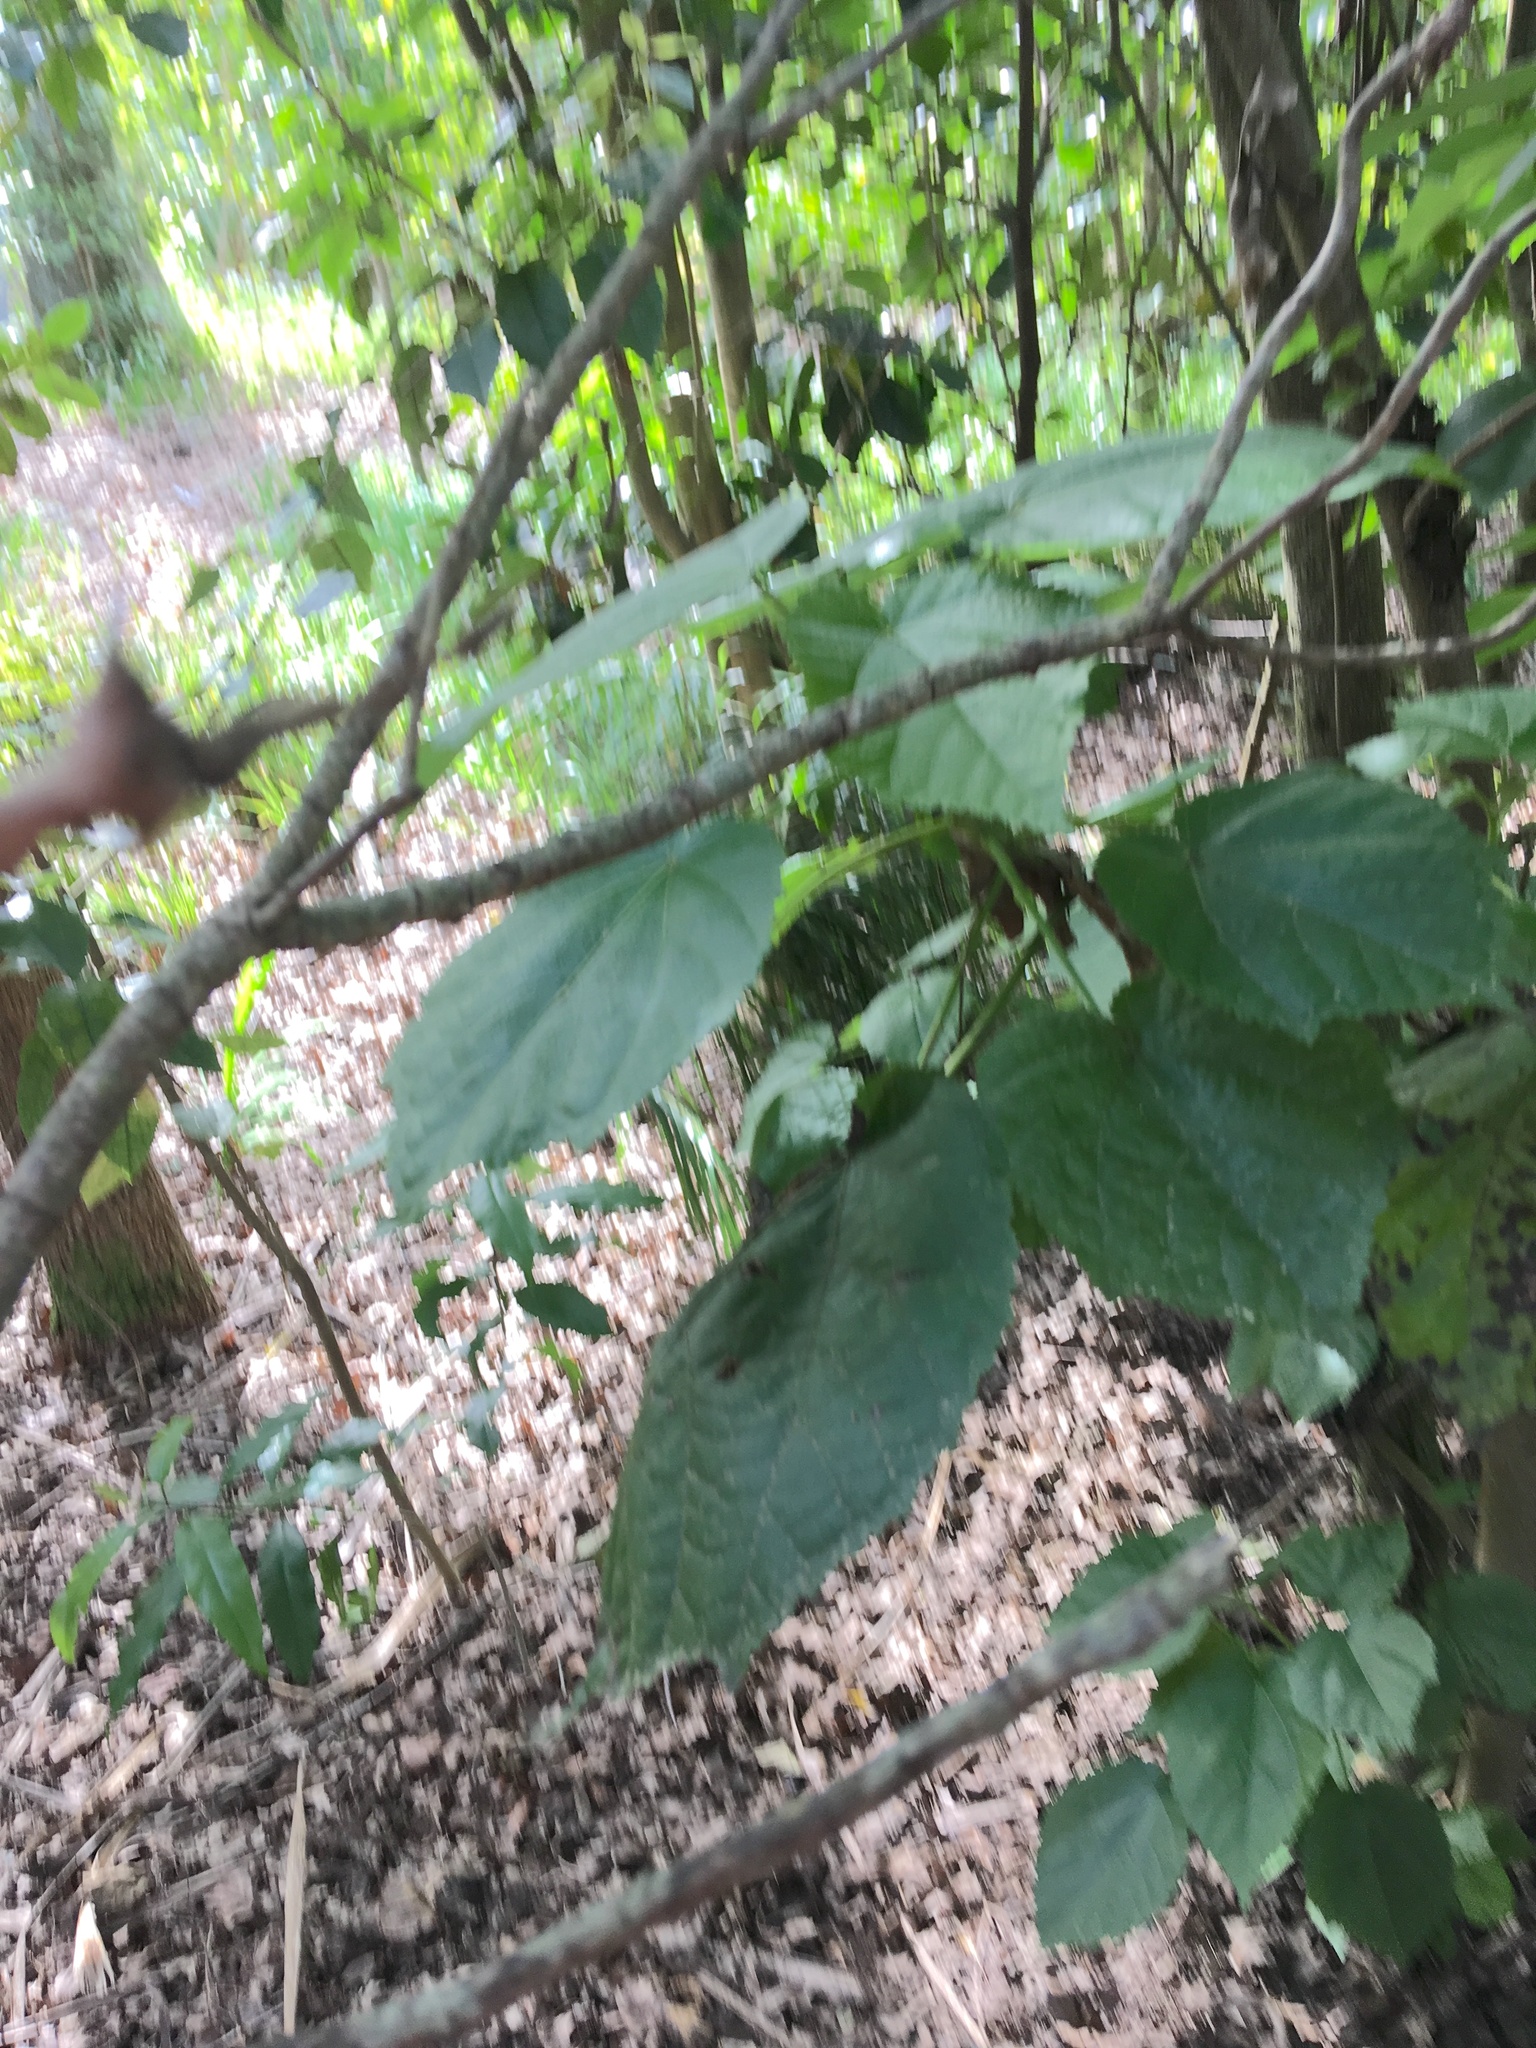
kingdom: Plantae
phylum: Tracheophyta
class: Magnoliopsida
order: Malvales
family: Malvaceae
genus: Entelea
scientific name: Entelea arborescens
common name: New zealand-mulberry
